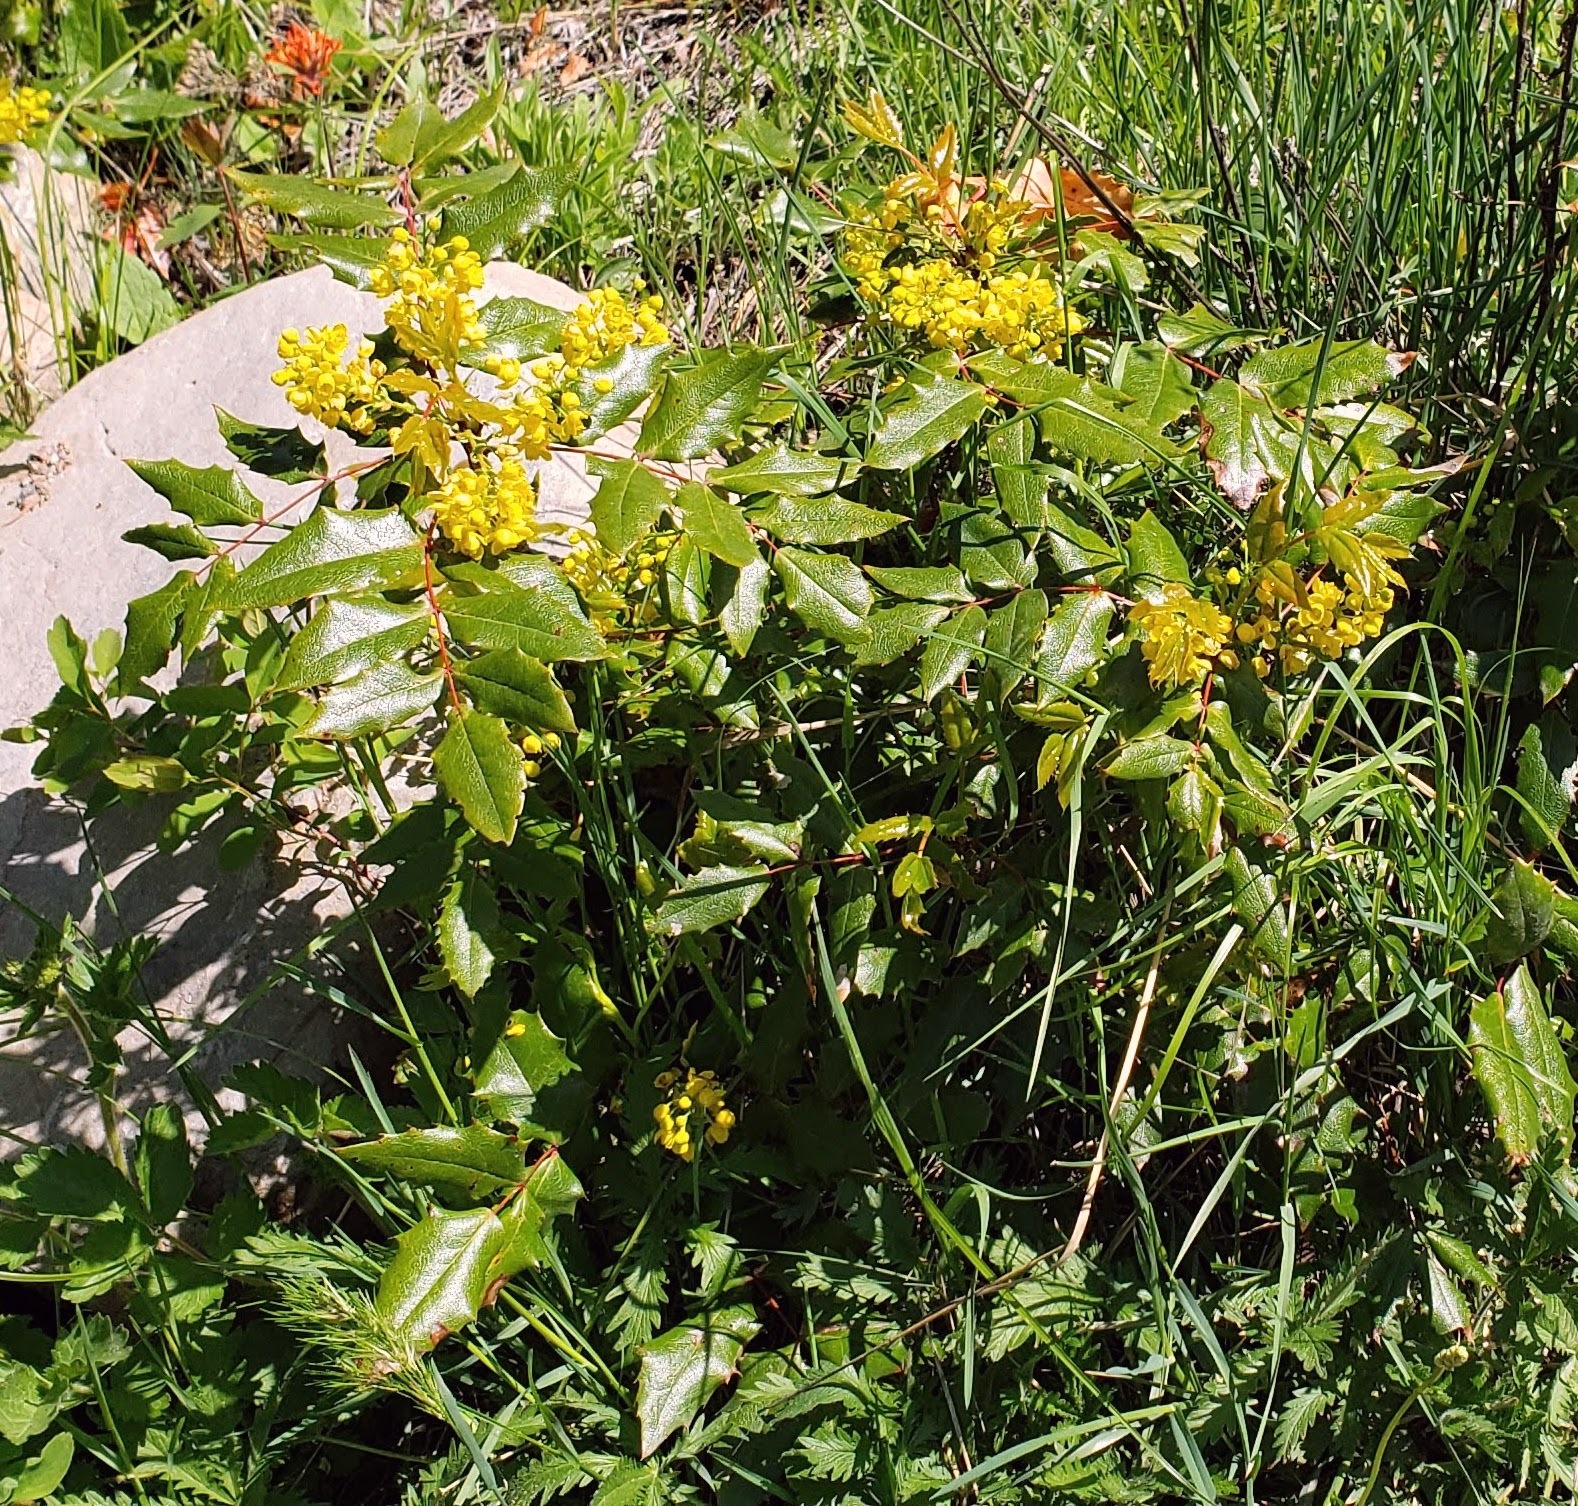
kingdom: Plantae
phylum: Tracheophyta
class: Magnoliopsida
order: Ranunculales
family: Berberidaceae
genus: Mahonia
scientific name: Mahonia aquifolium
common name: Oregon-grape
